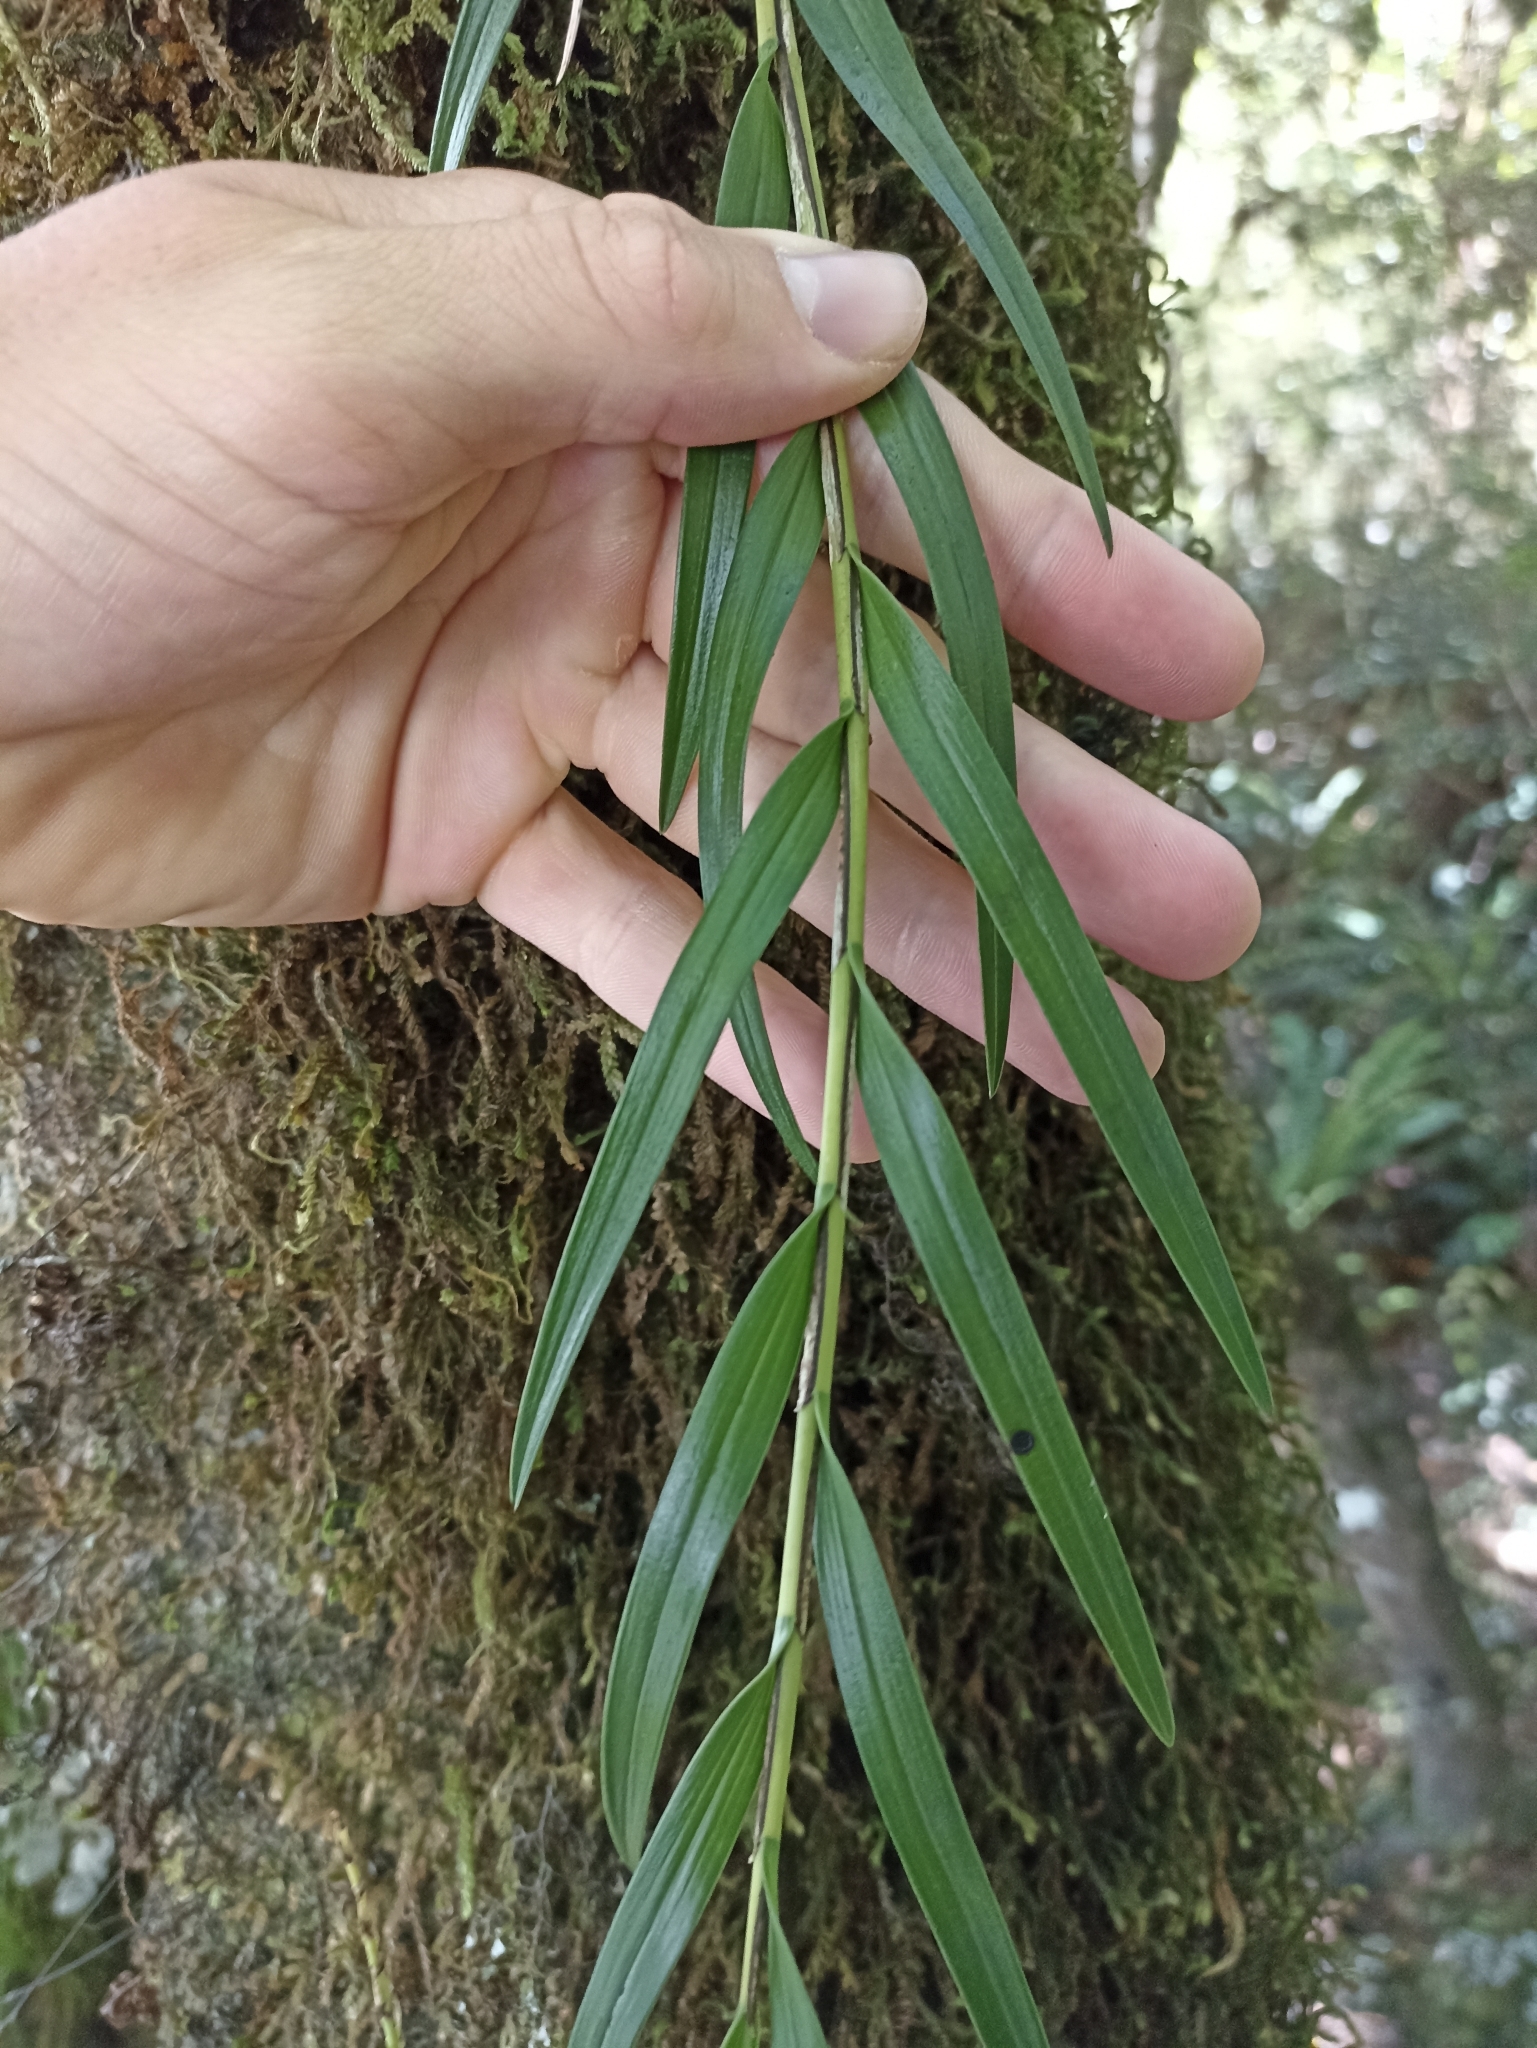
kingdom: Plantae
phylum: Tracheophyta
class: Liliopsida
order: Asparagales
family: Orchidaceae
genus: Earina
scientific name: Earina autumnalis
